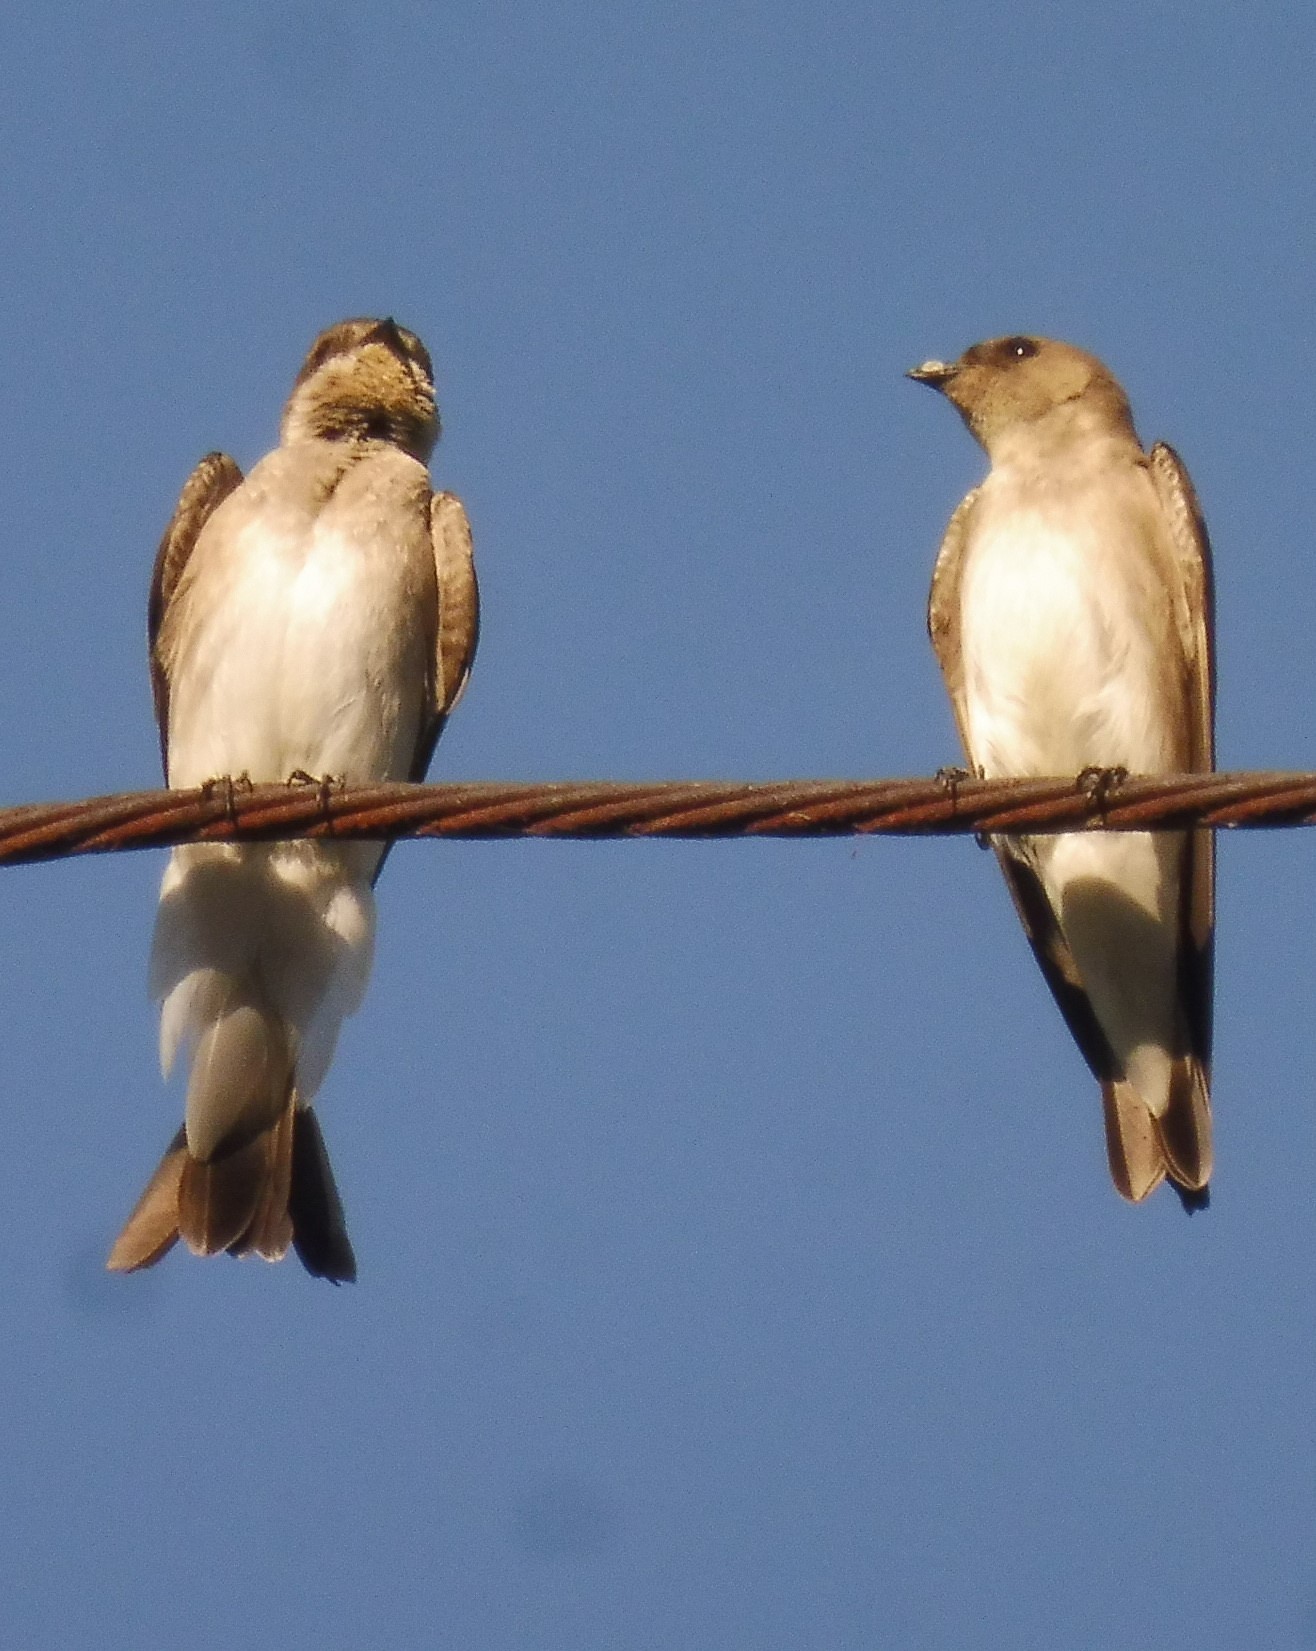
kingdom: Animalia
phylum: Chordata
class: Aves
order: Passeriformes
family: Hirundinidae
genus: Stelgidopteryx
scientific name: Stelgidopteryx serripennis
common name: Northern rough-winged swallow
